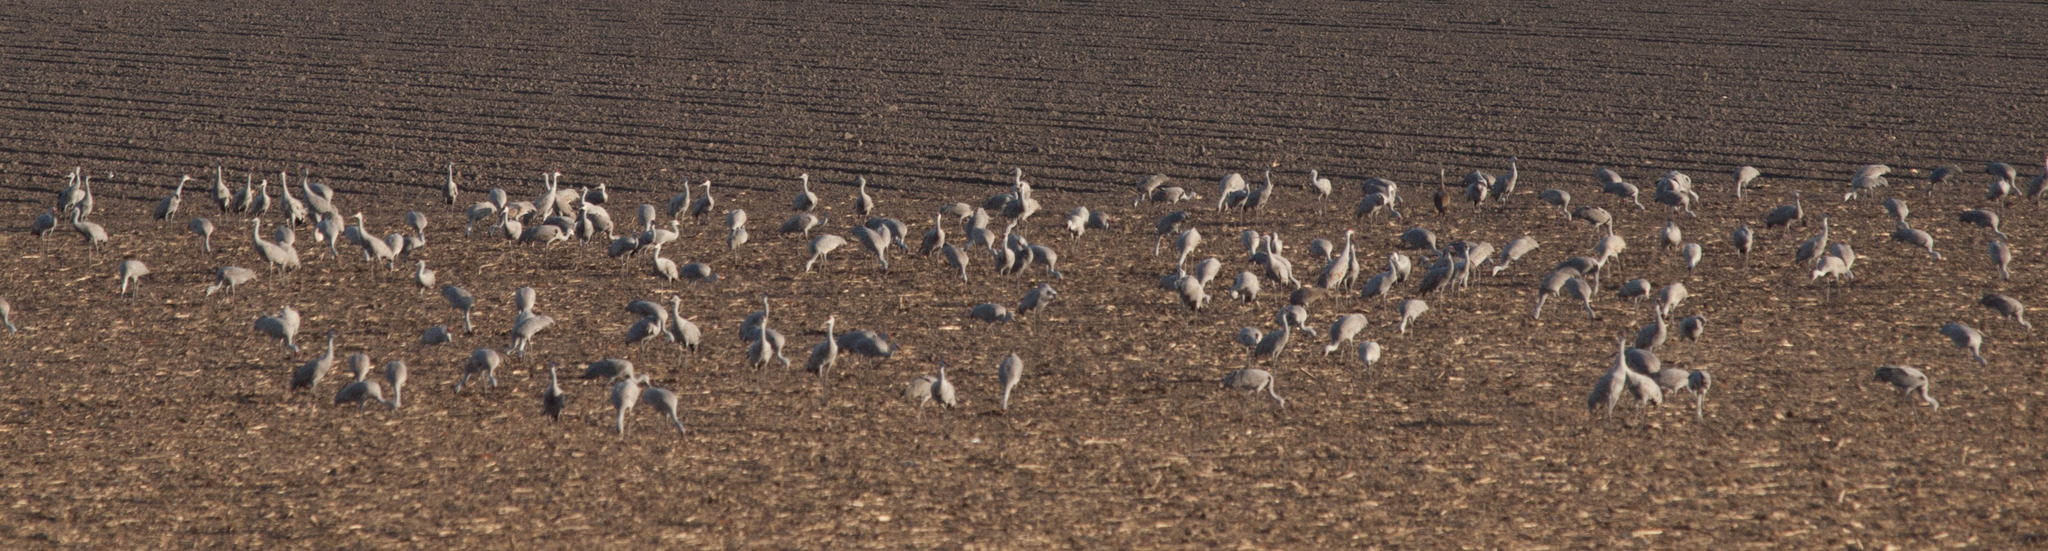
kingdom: Animalia
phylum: Chordata
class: Aves
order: Gruiformes
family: Gruidae
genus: Grus
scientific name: Grus canadensis
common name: Sandhill crane
